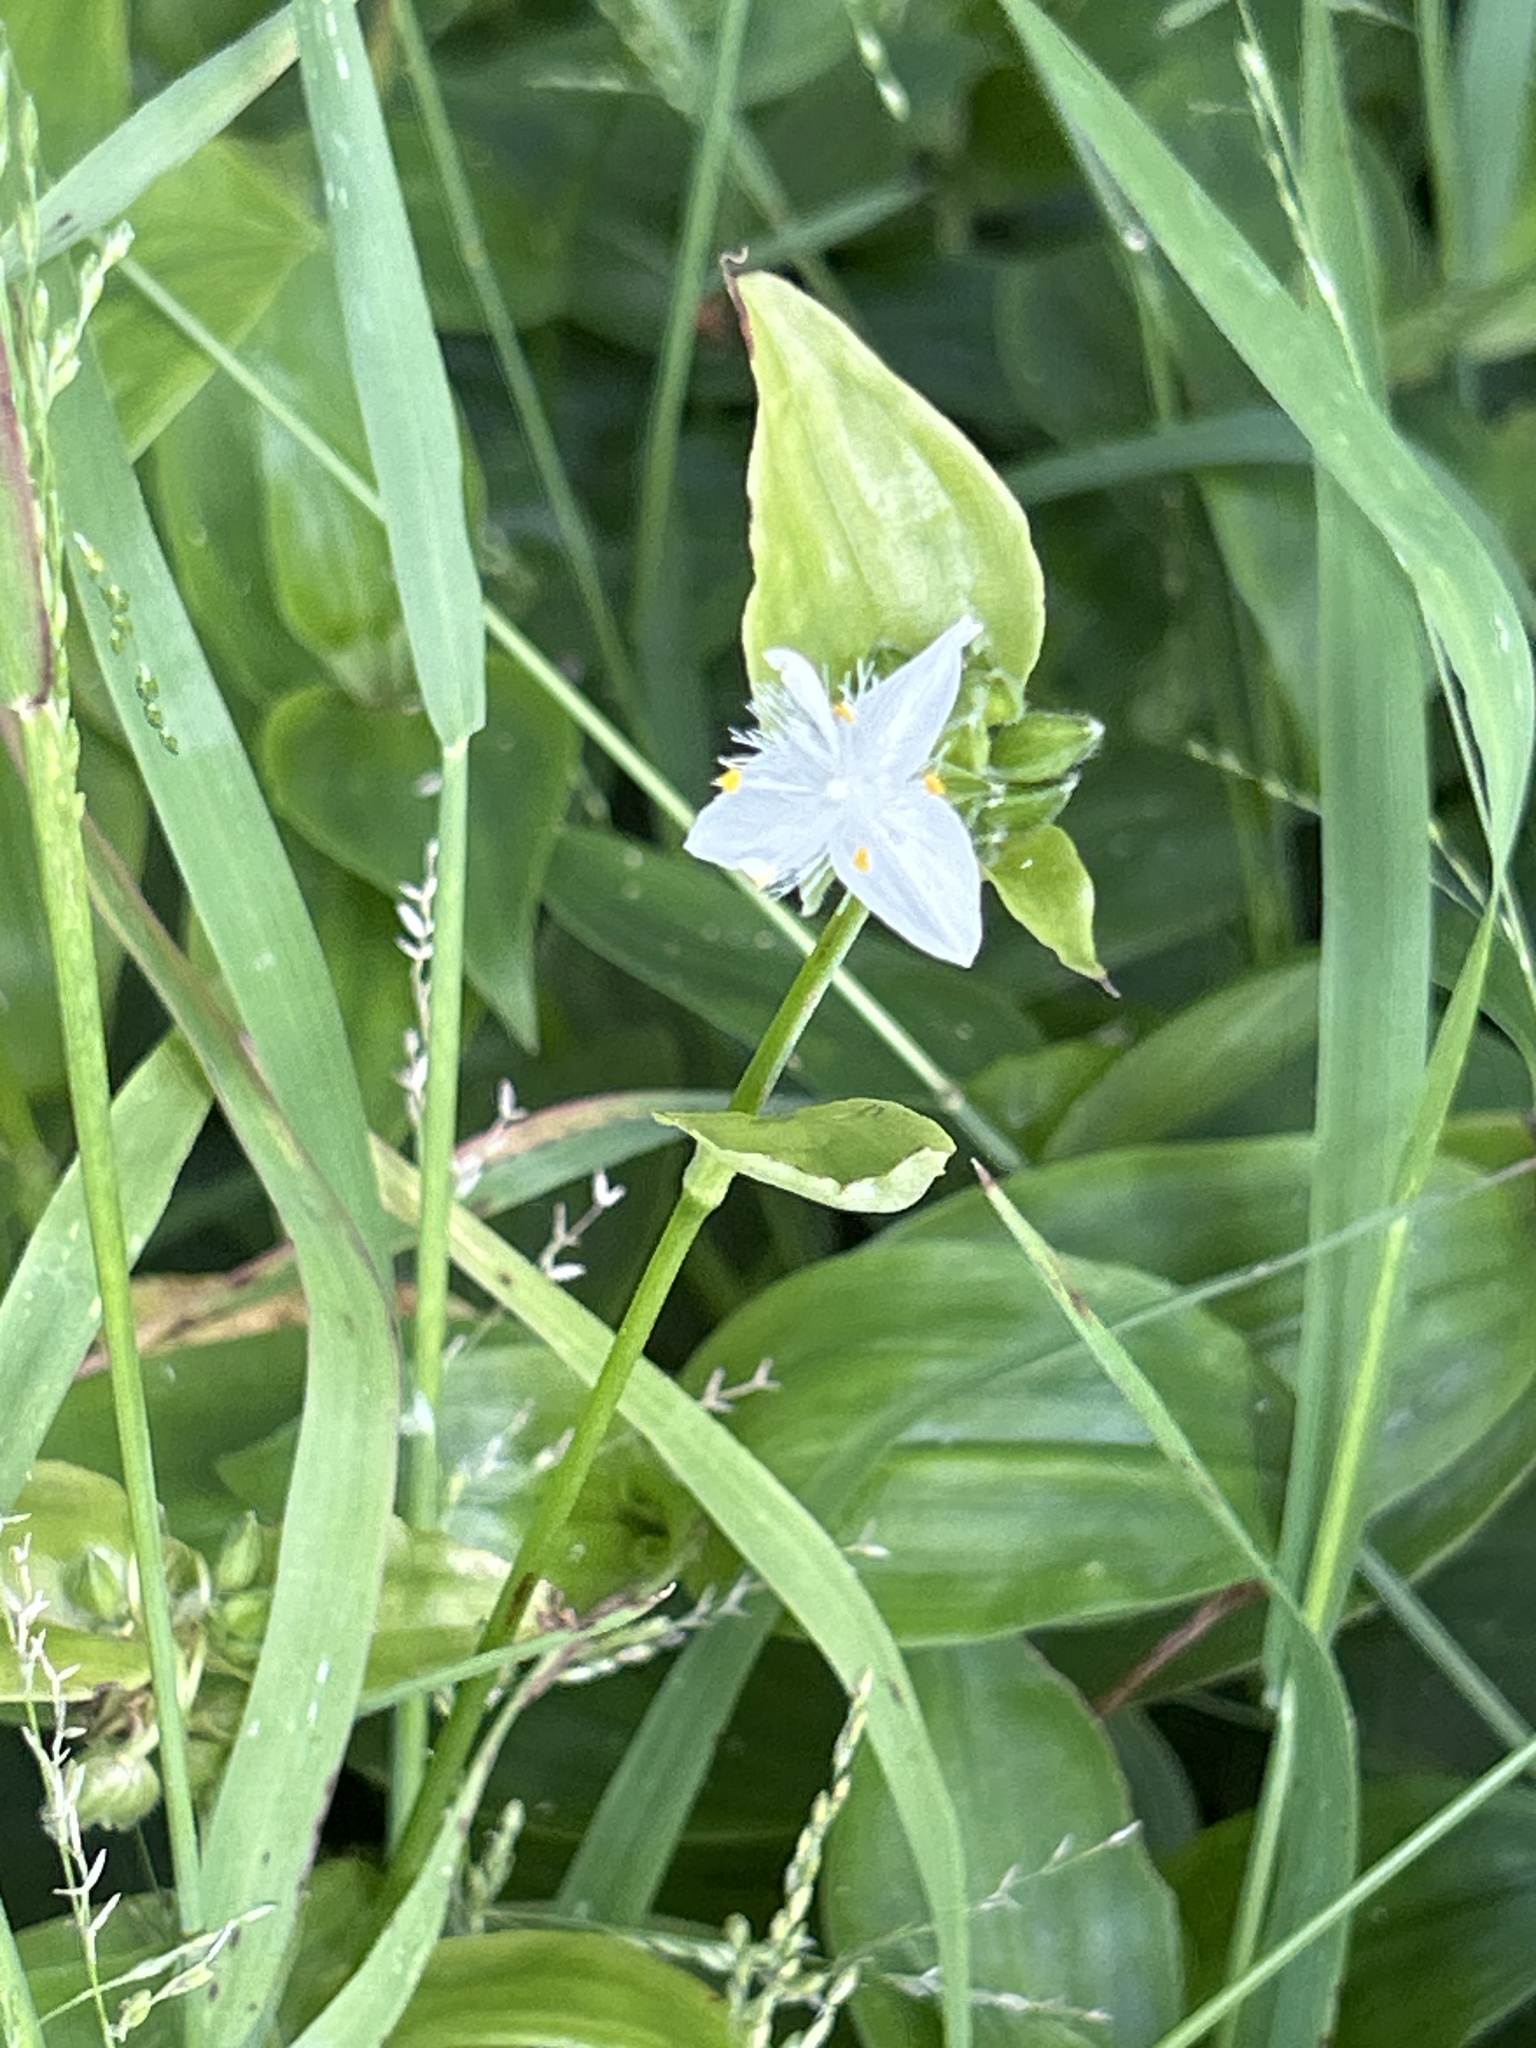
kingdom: Plantae
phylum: Tracheophyta
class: Liliopsida
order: Commelinales
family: Commelinaceae
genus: Tradescantia
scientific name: Tradescantia fluminensis
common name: Wandering-jew
